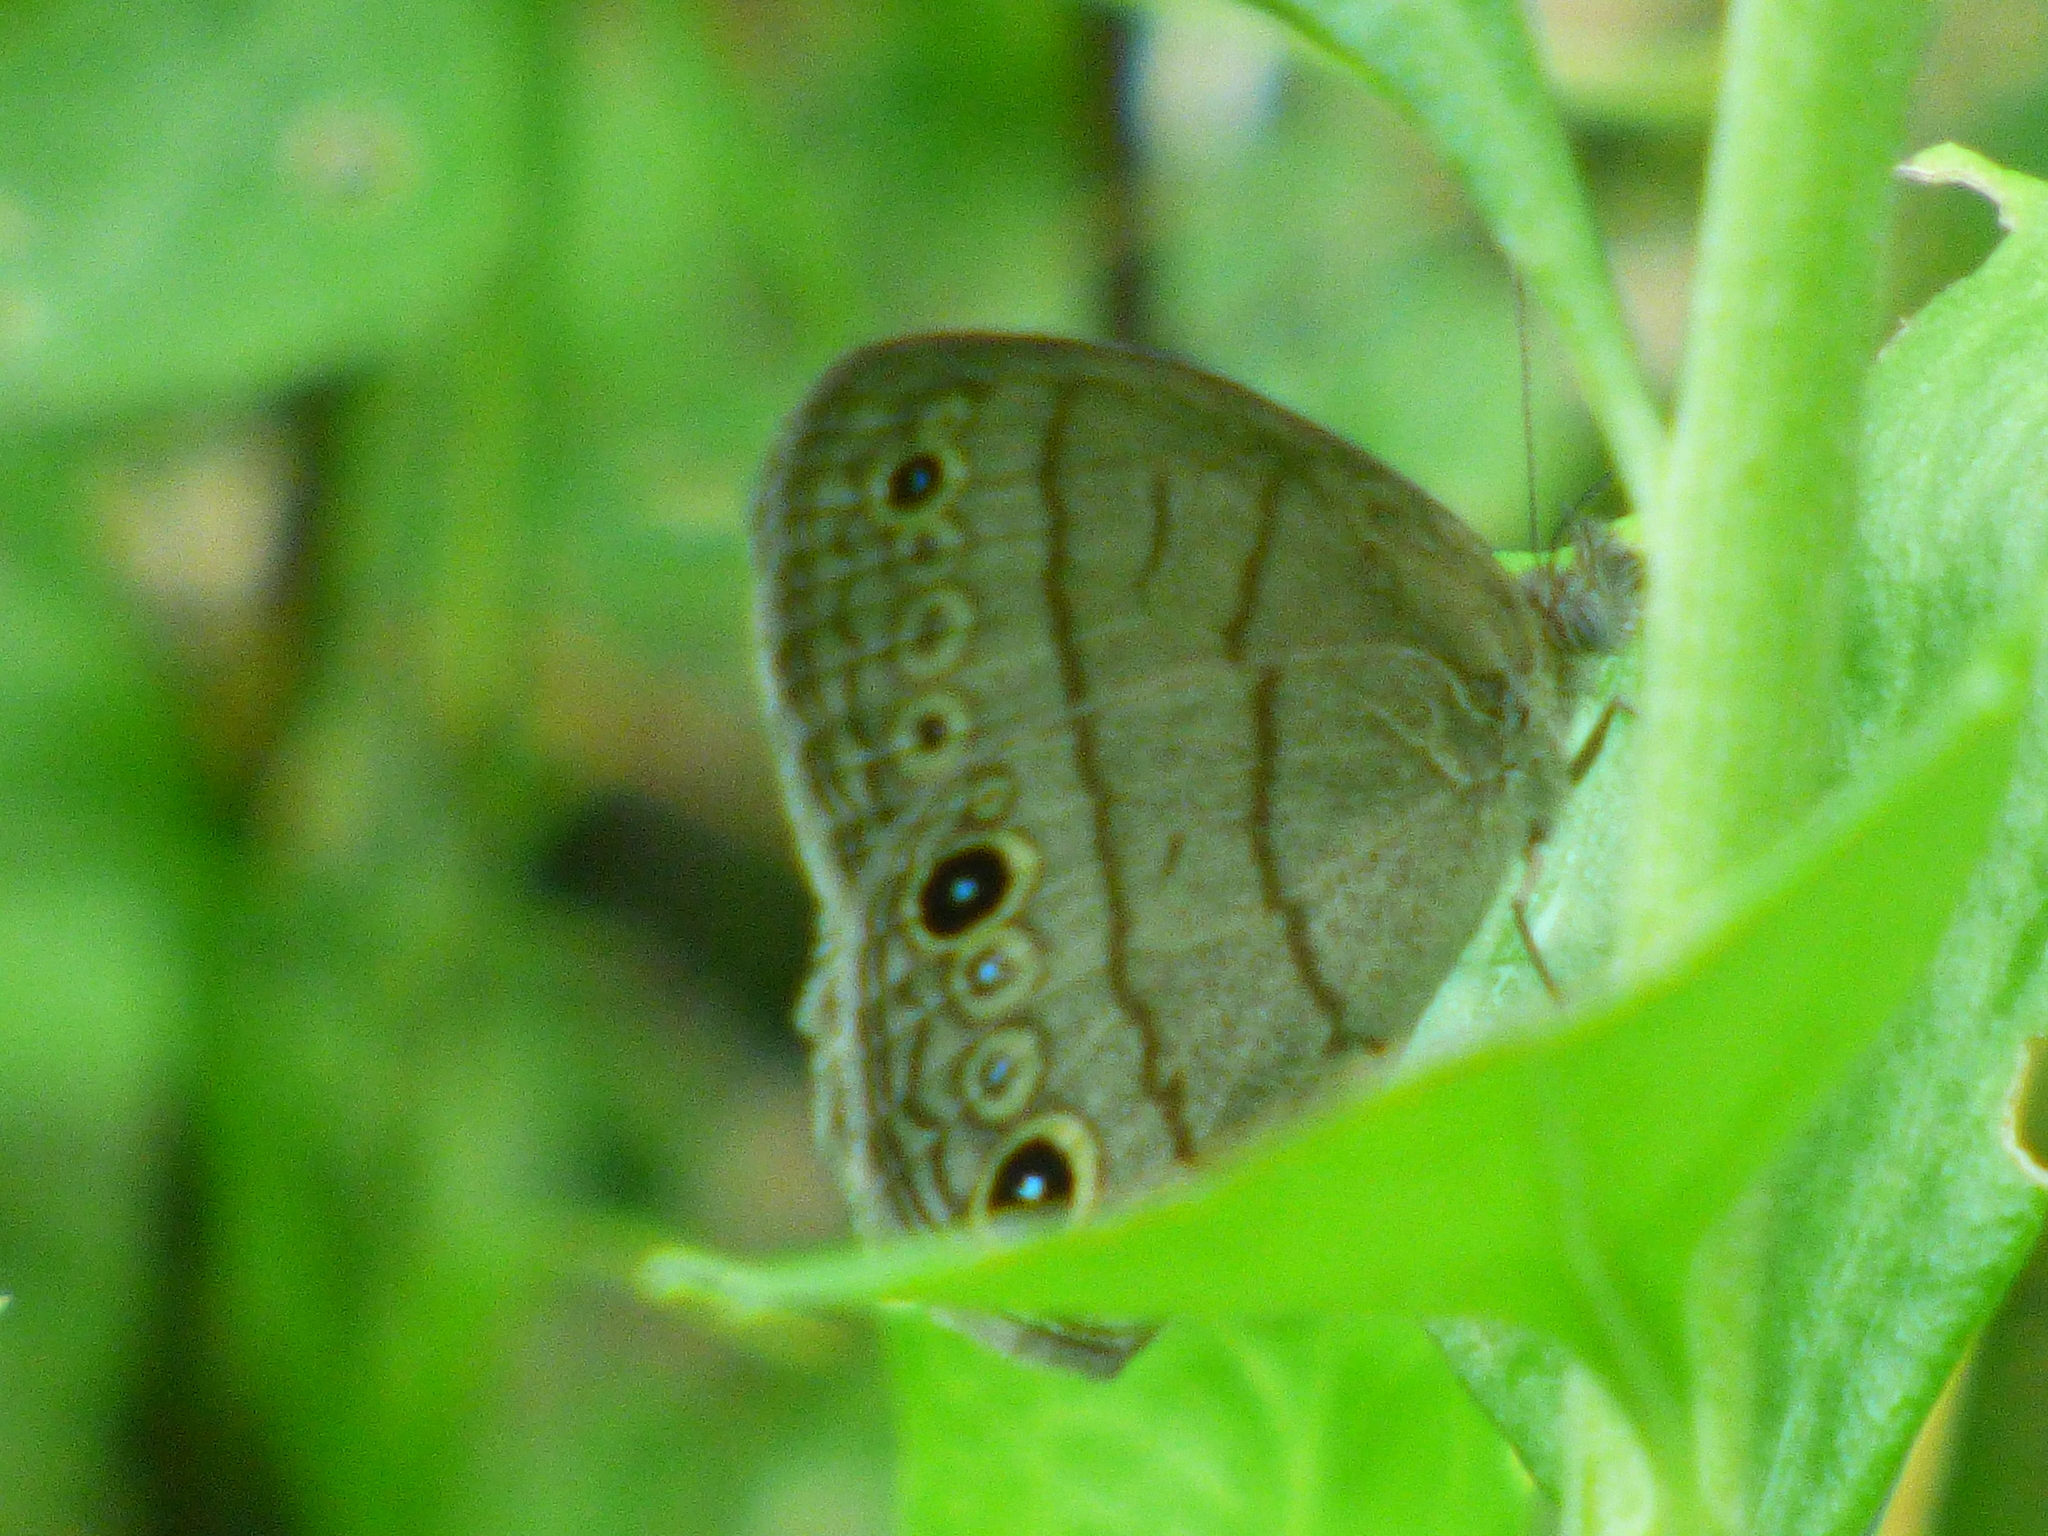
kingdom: Animalia
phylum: Arthropoda
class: Insecta
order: Lepidoptera
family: Nymphalidae
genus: Hermeuptychia
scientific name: Hermeuptychia intricata
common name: Intricate satyr
